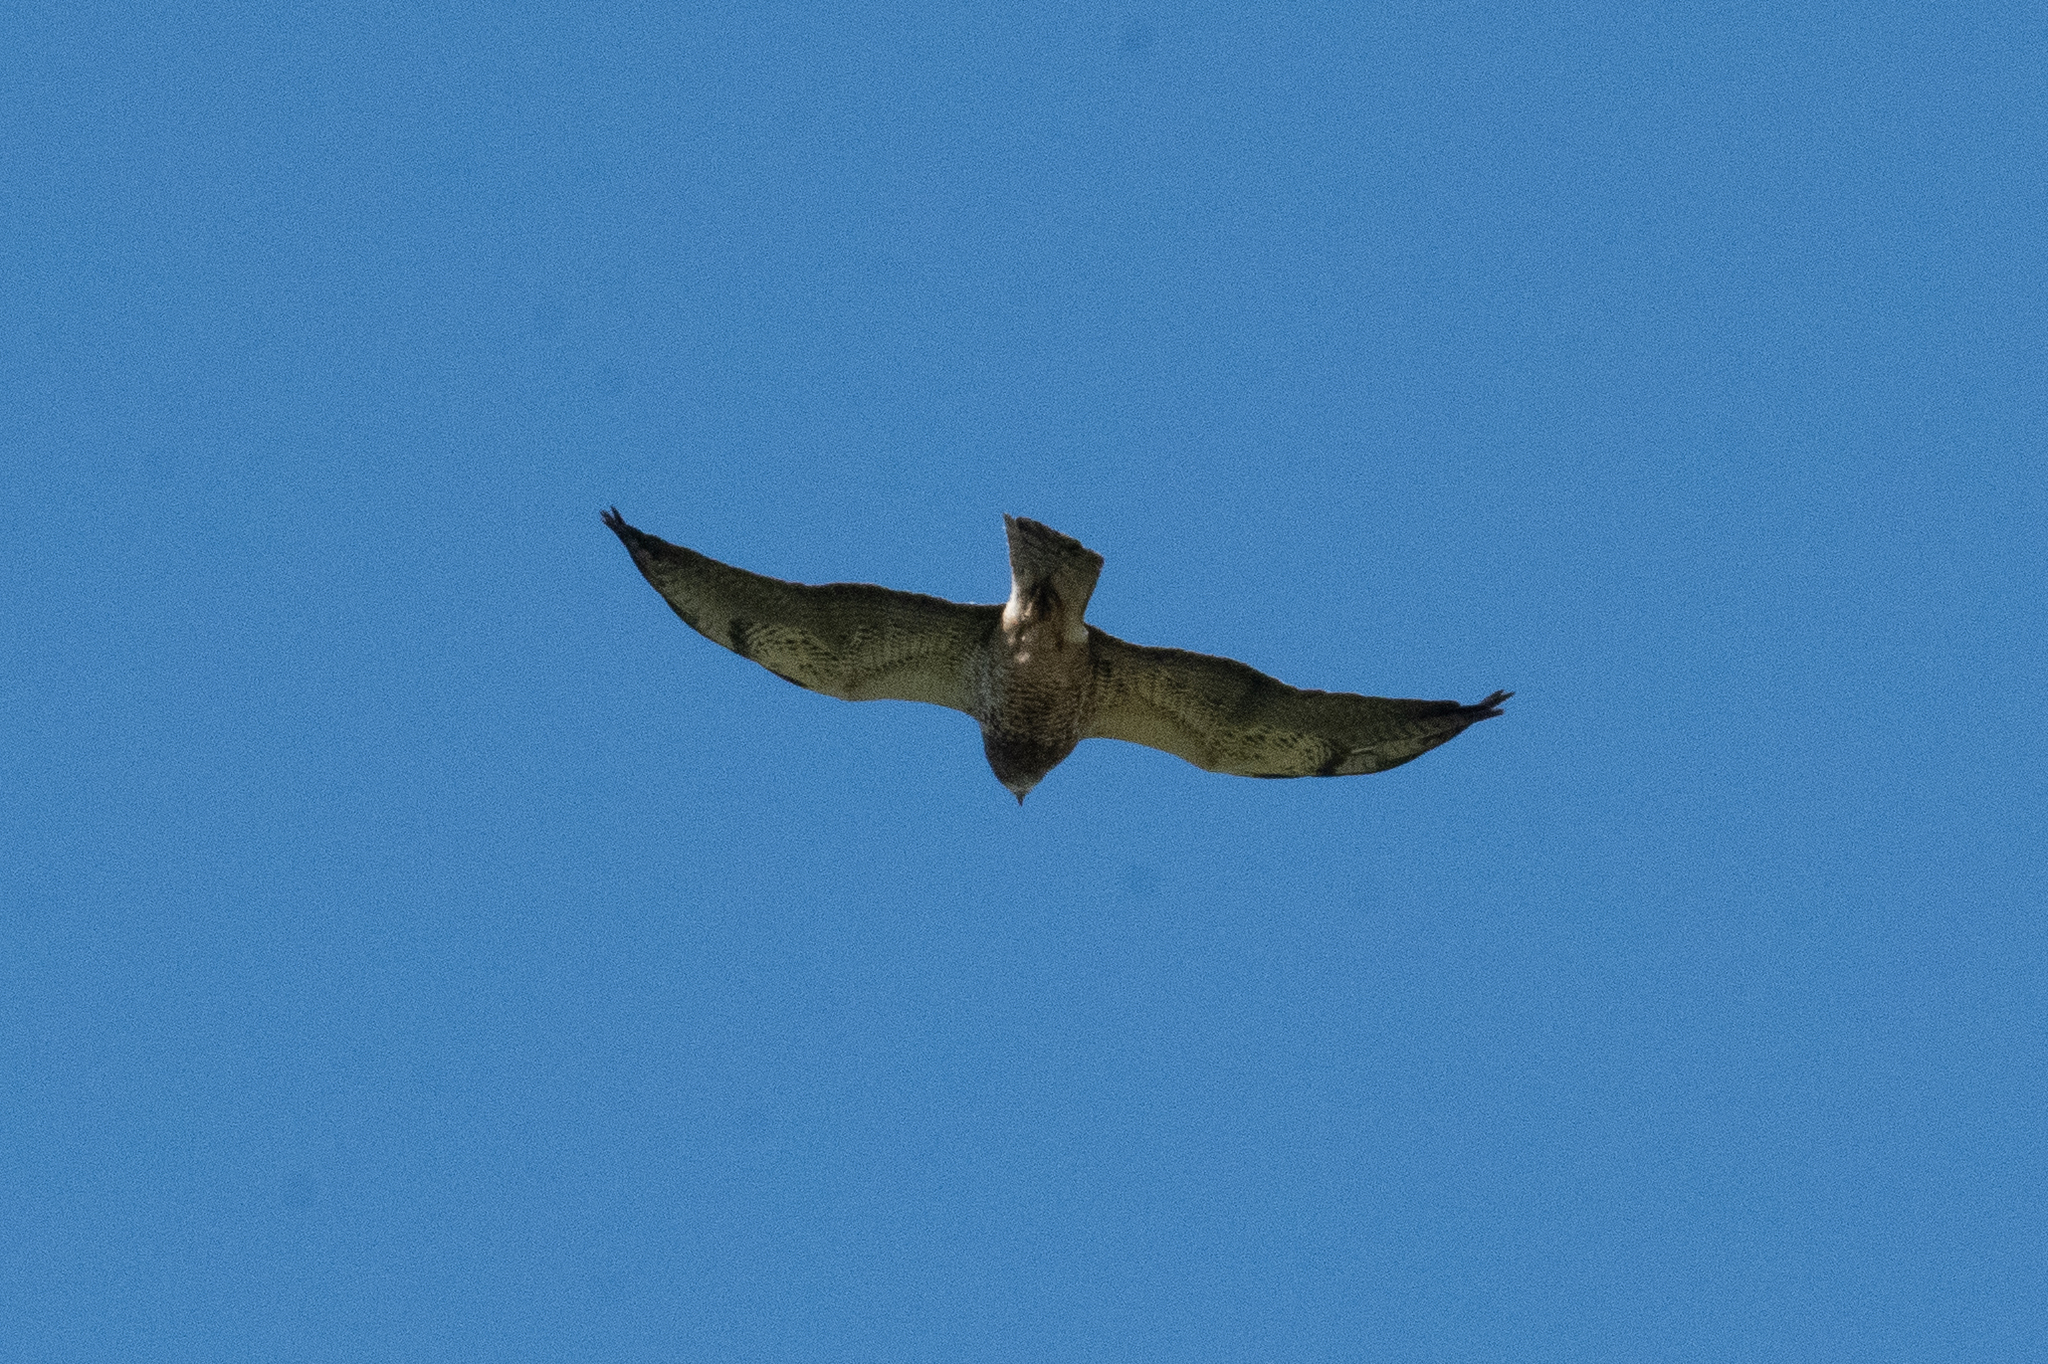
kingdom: Animalia
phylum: Chordata
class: Aves
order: Accipitriformes
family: Accipitridae
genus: Buteo
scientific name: Buteo swainsoni
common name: Swainson's hawk
